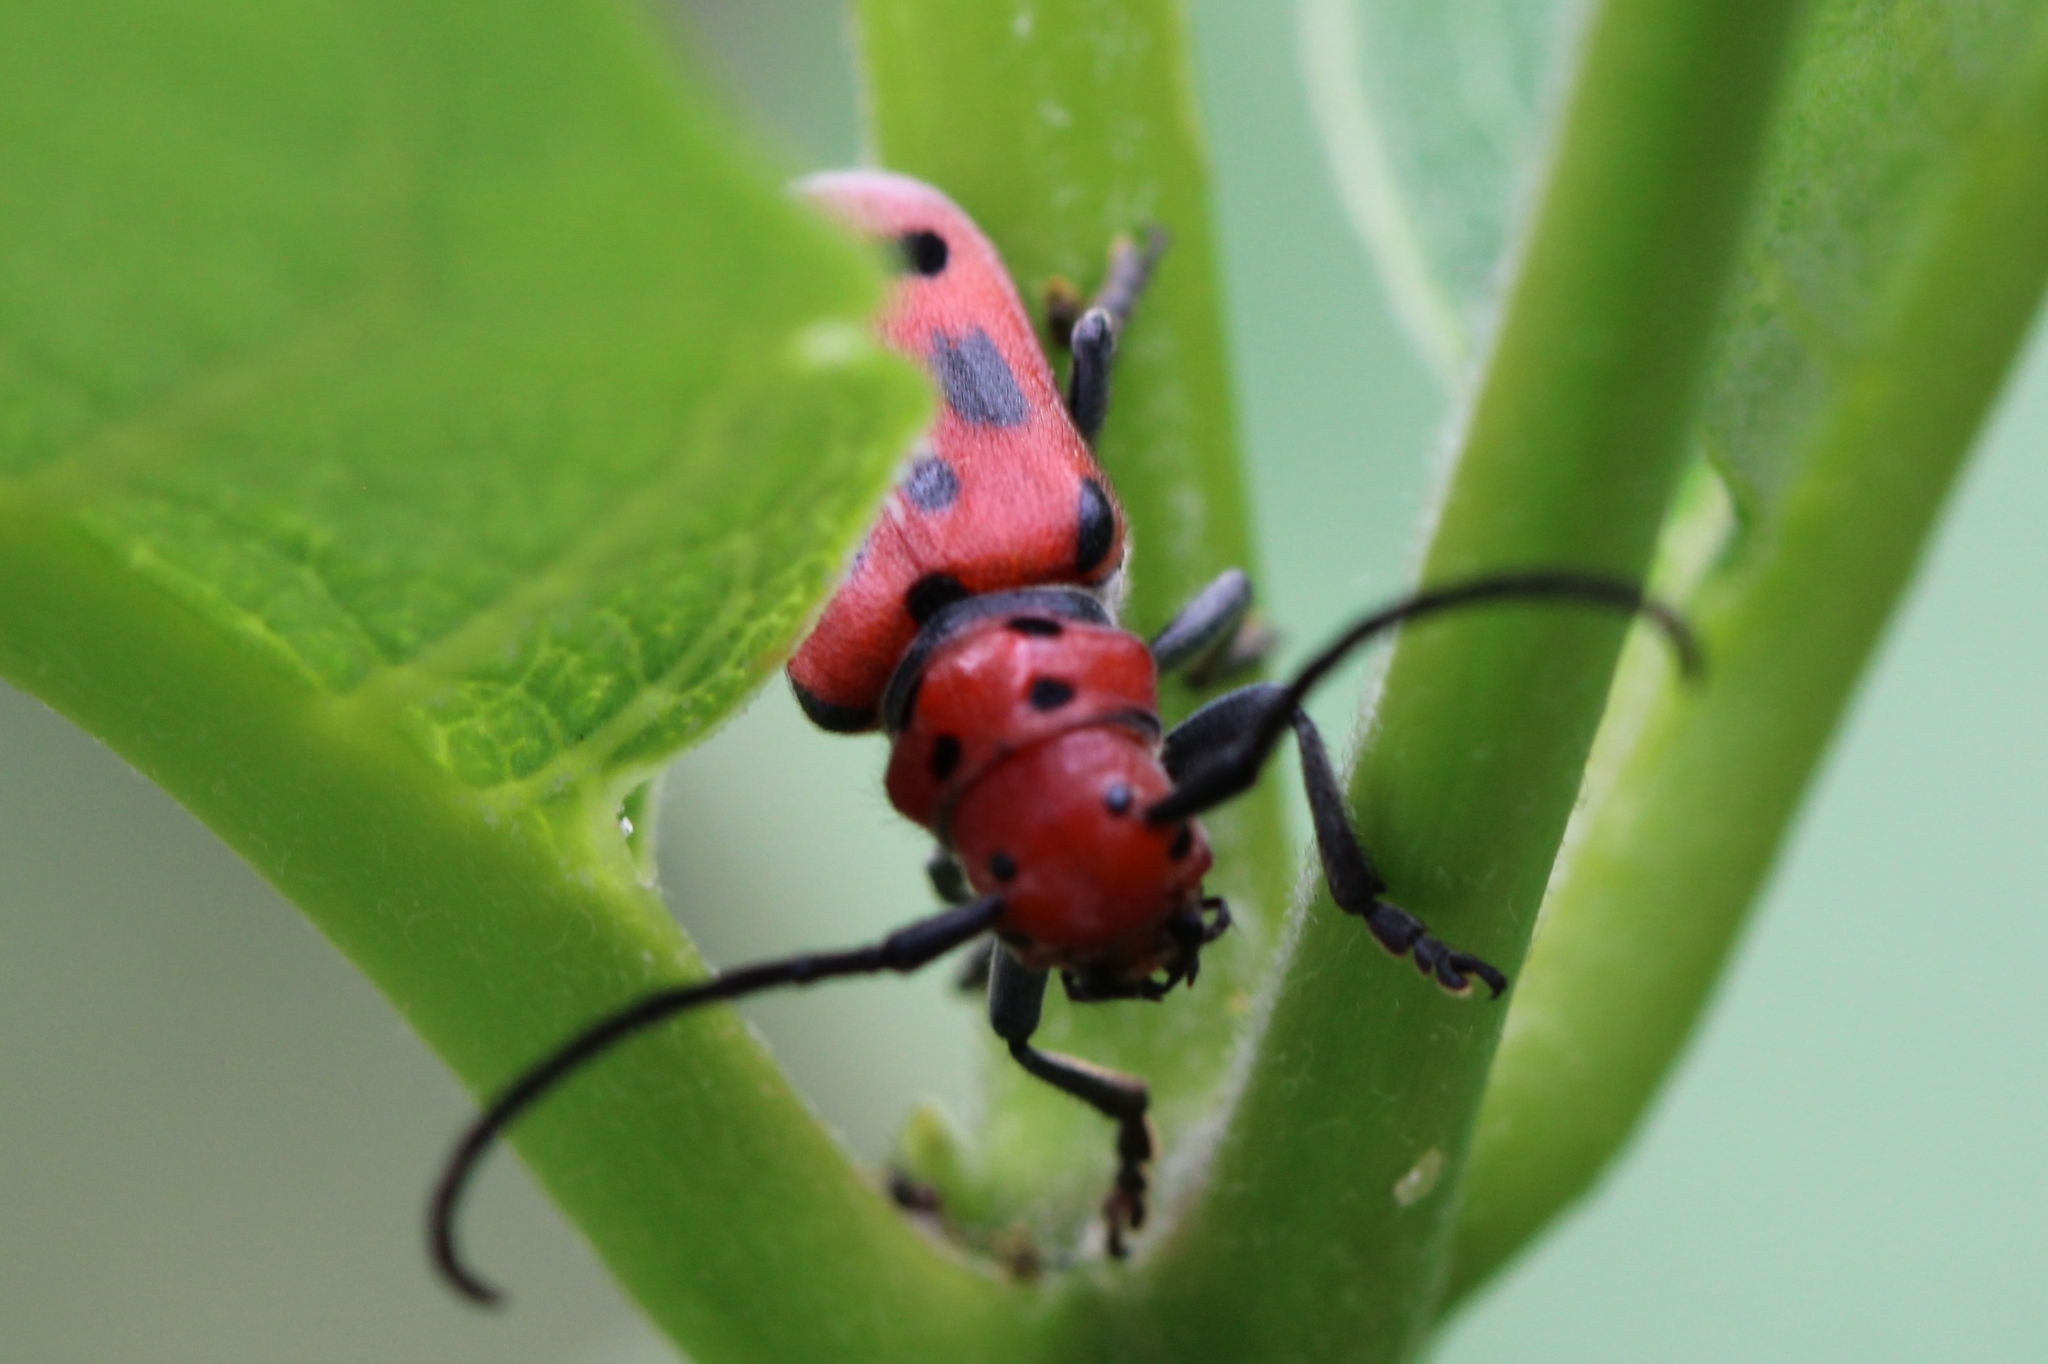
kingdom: Animalia
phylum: Arthropoda
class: Insecta
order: Coleoptera
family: Cerambycidae
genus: Tetraopes
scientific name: Tetraopes tetrophthalmus
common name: Red milkweed beetle
